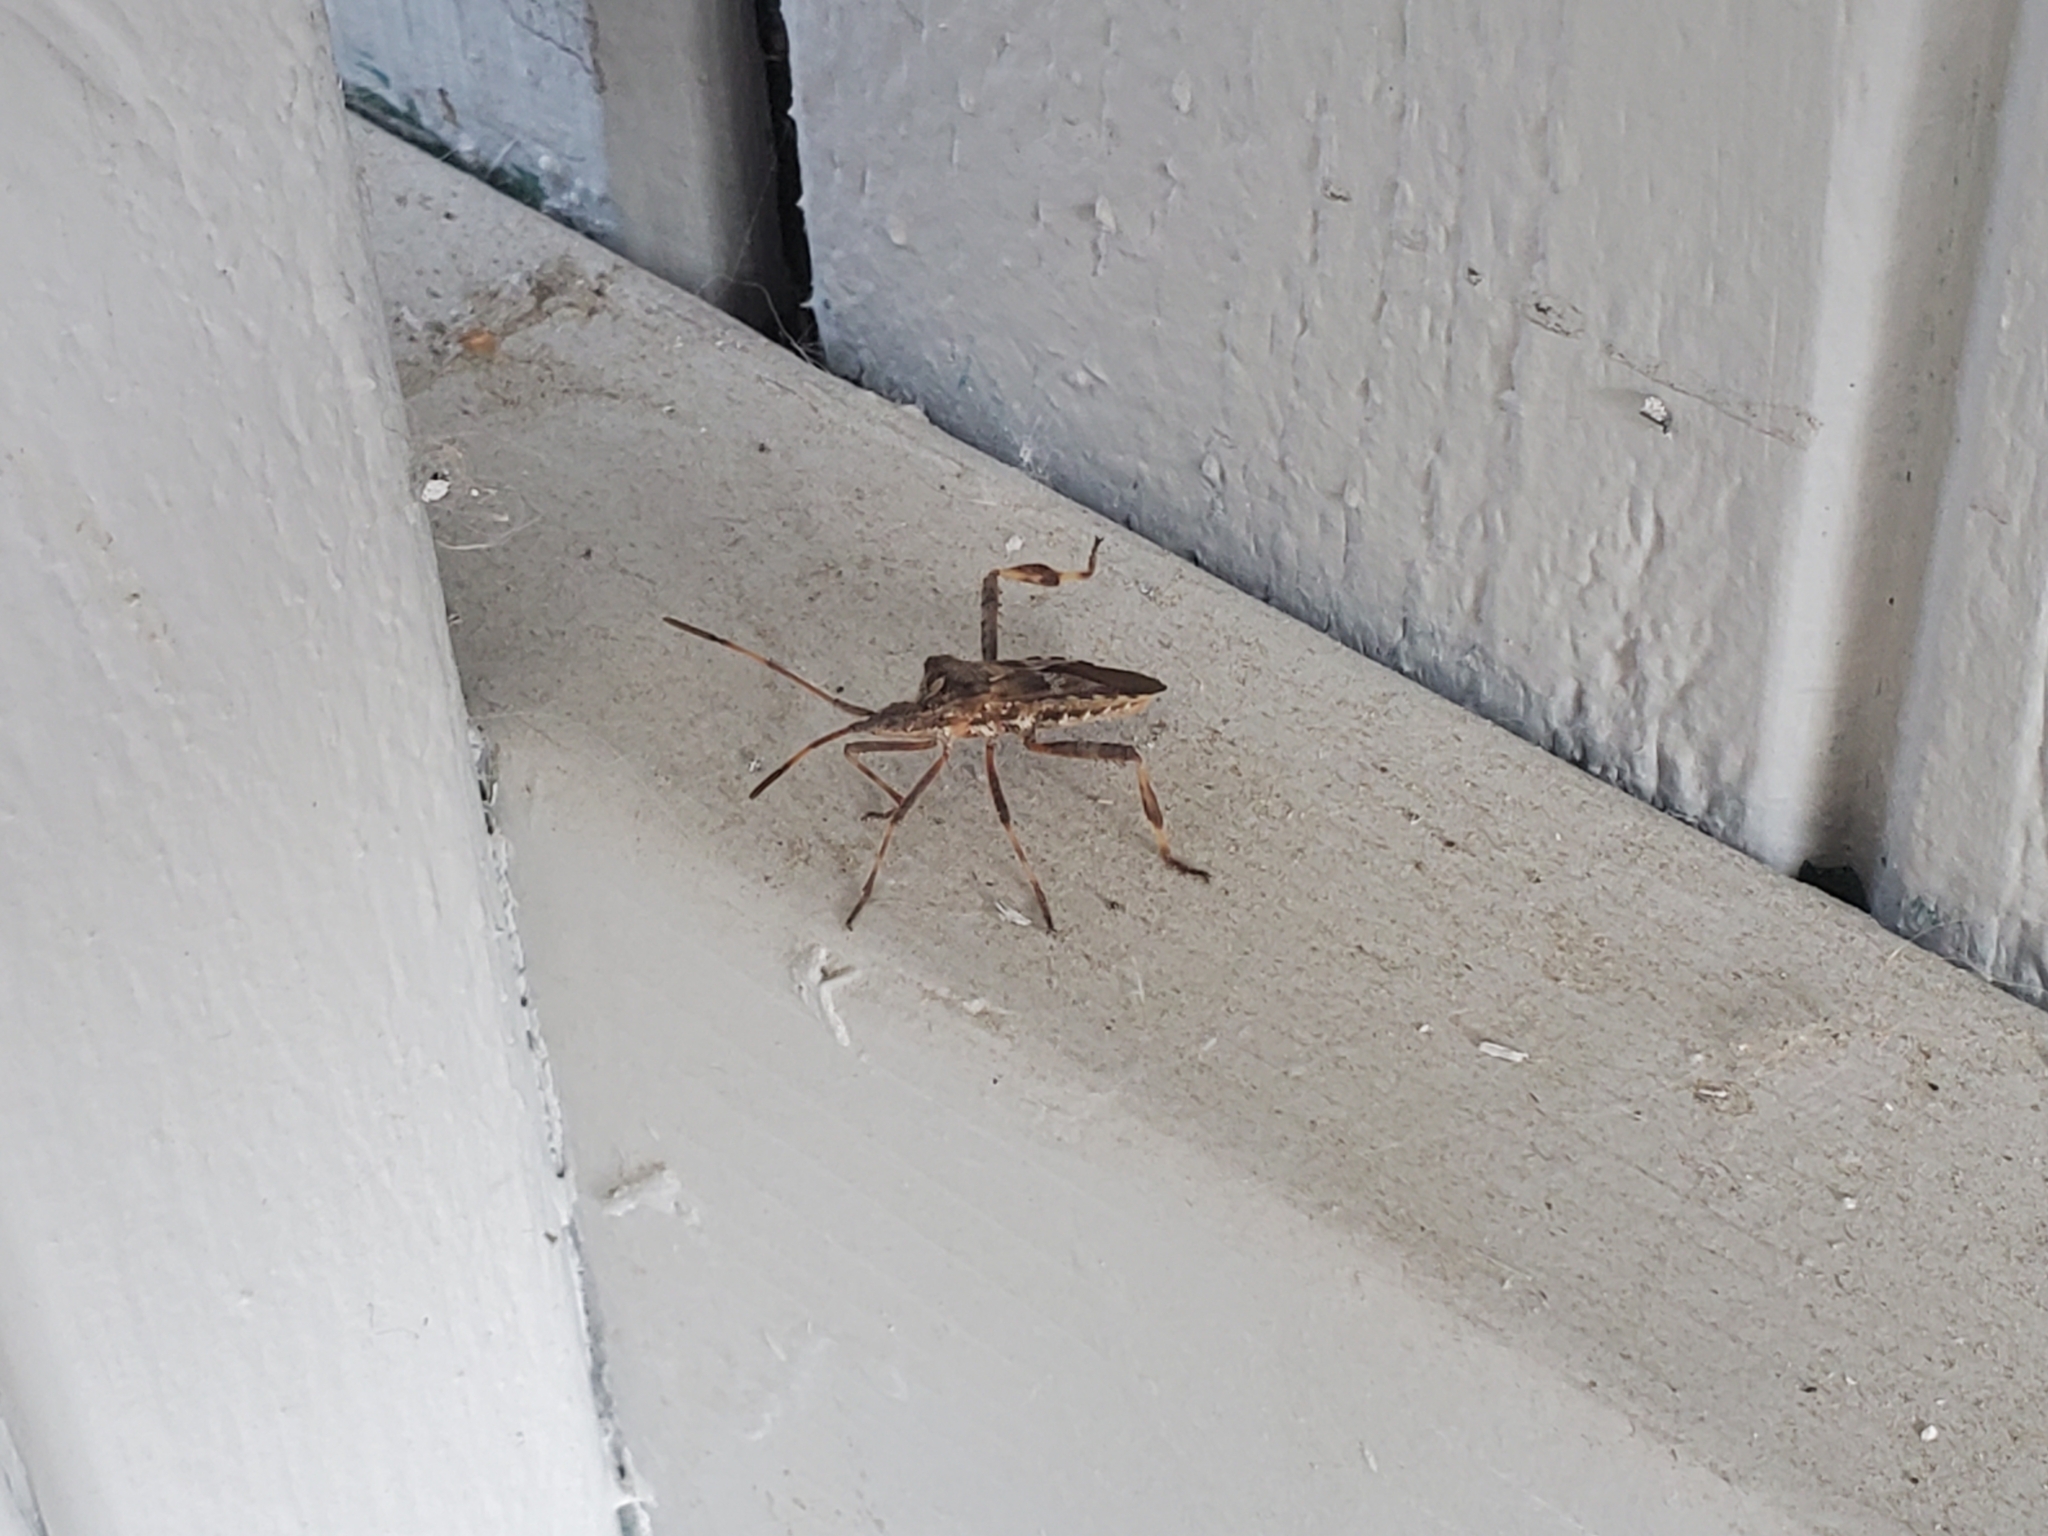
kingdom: Animalia
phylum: Arthropoda
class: Insecta
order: Hemiptera
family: Coreidae
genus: Leptoglossus
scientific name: Leptoglossus occidentalis
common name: Western conifer-seed bug
